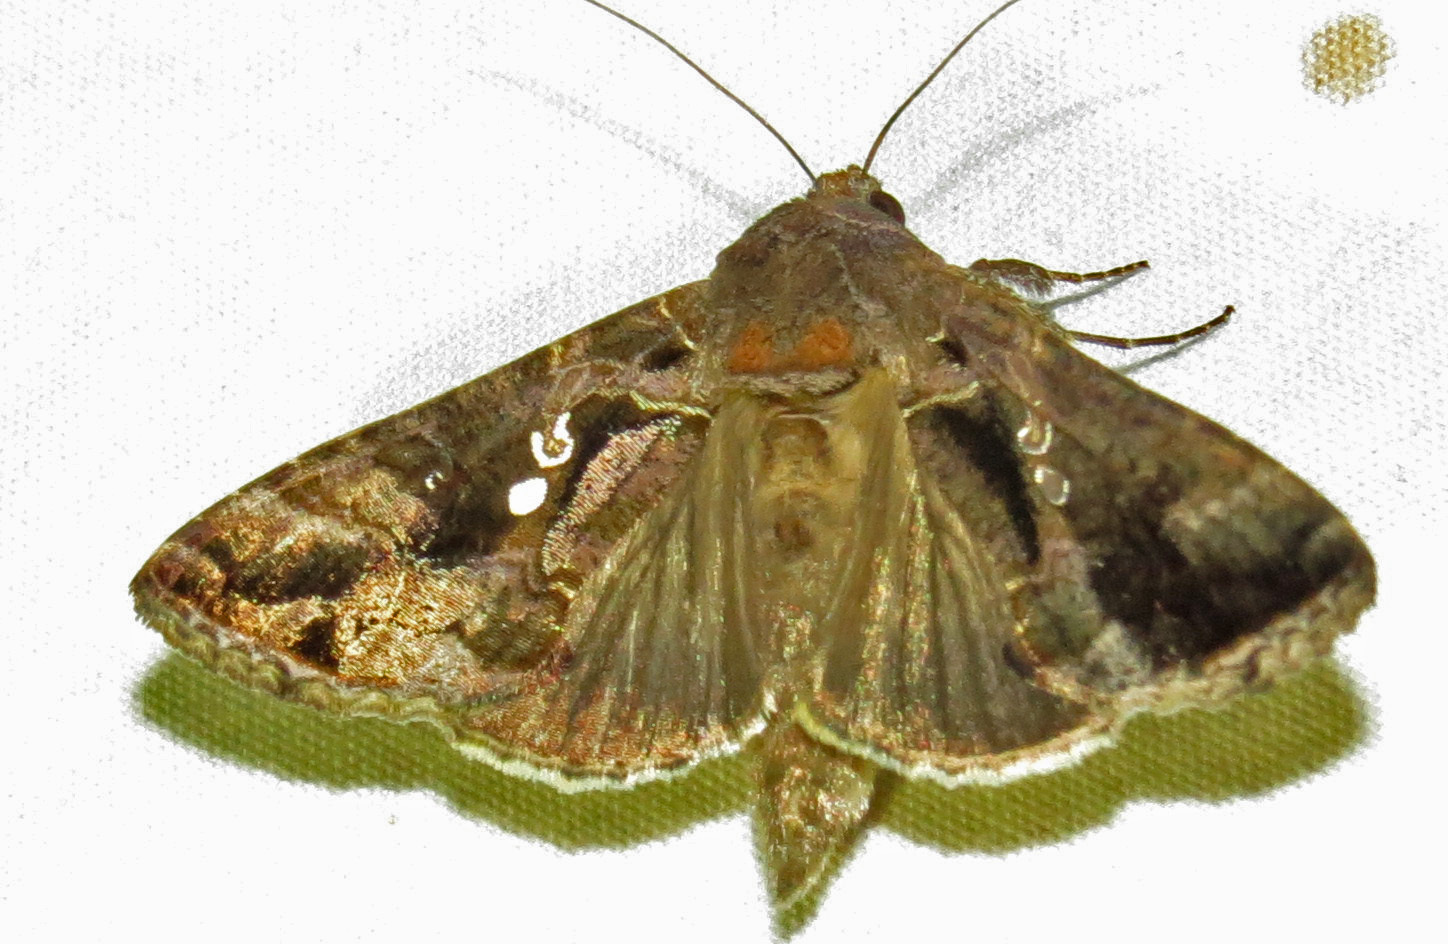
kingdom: Animalia
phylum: Arthropoda
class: Insecta
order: Lepidoptera
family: Noctuidae
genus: Chrysodeixis
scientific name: Chrysodeixis includens
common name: Cutworm moth
